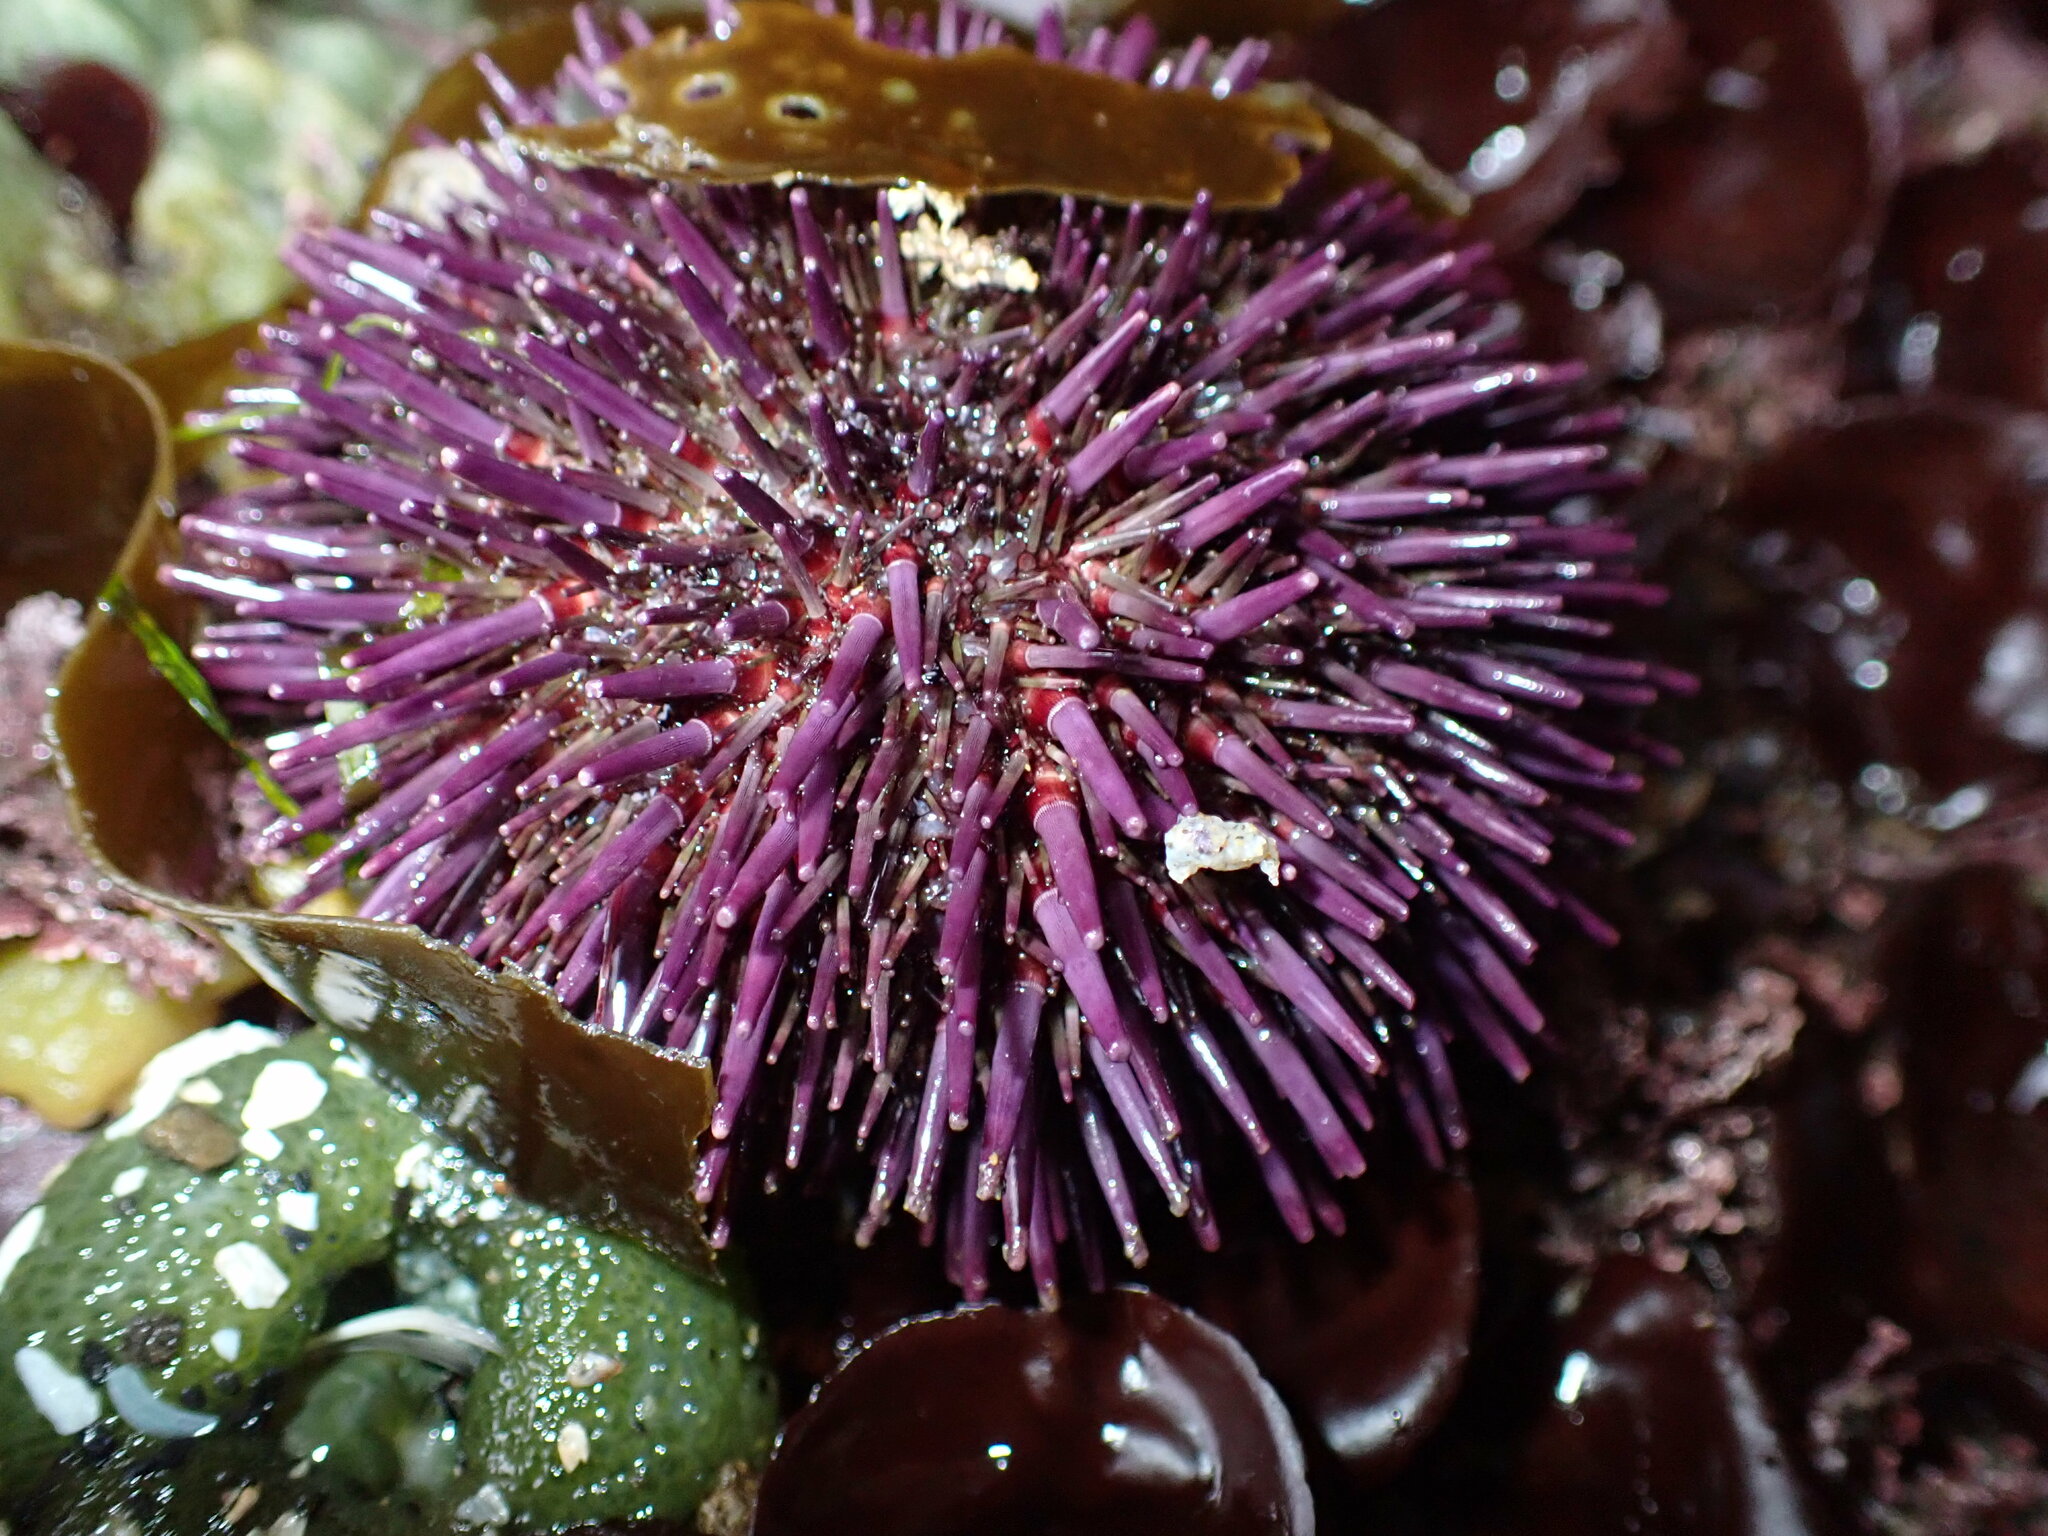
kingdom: Animalia
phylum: Echinodermata
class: Echinoidea
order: Camarodonta
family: Strongylocentrotidae
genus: Strongylocentrotus
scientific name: Strongylocentrotus purpuratus
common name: Purple sea urchin
